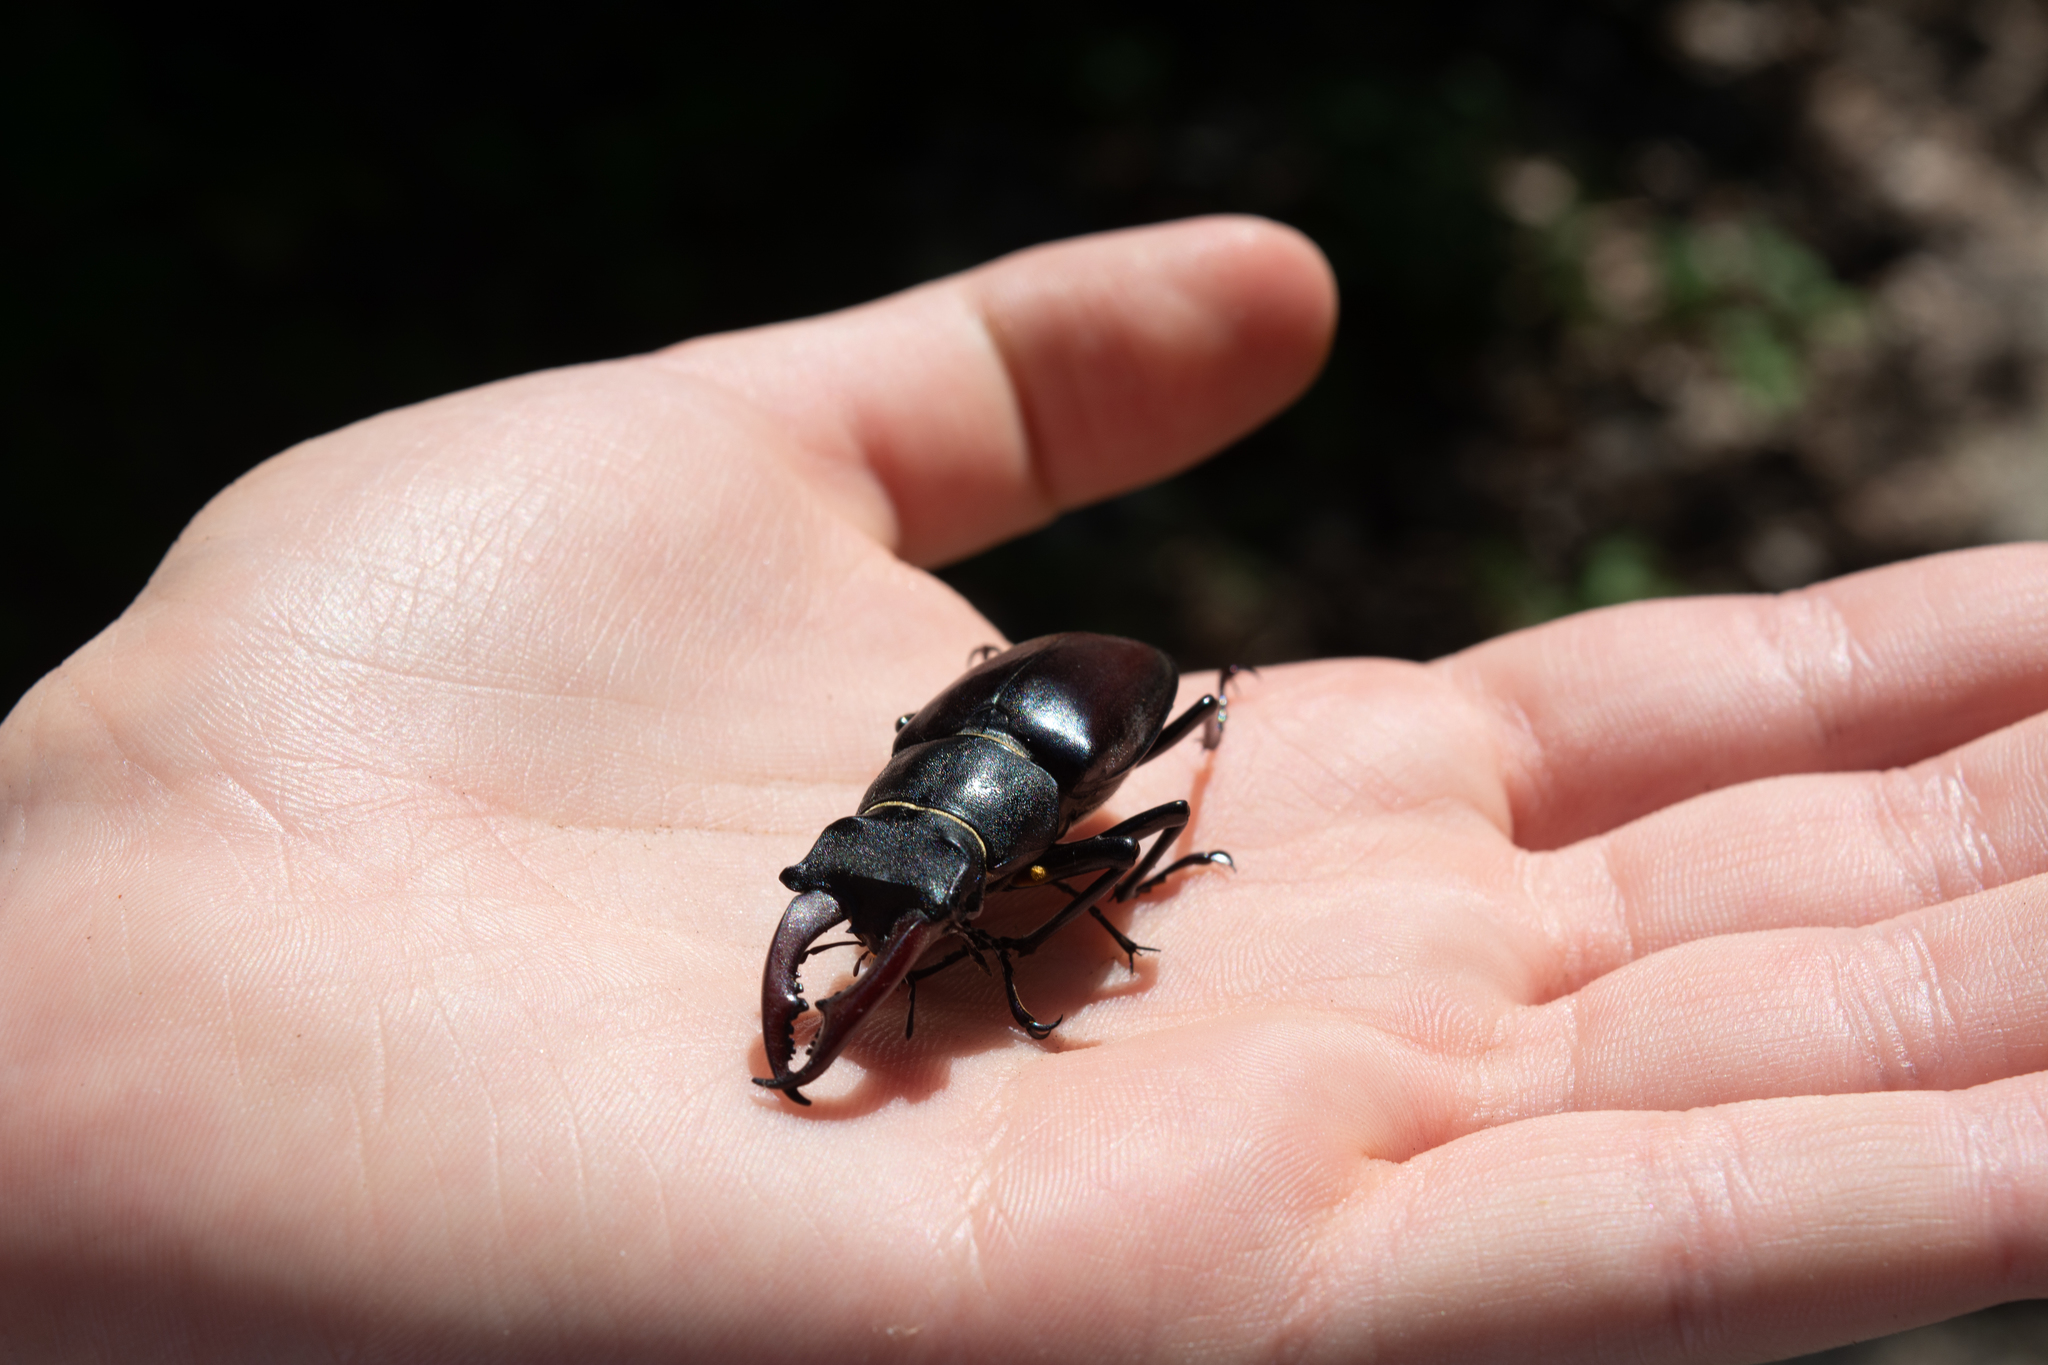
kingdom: Animalia
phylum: Arthropoda
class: Insecta
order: Coleoptera
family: Lucanidae
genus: Lucanus
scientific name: Lucanus cervus
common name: Stag beetle
